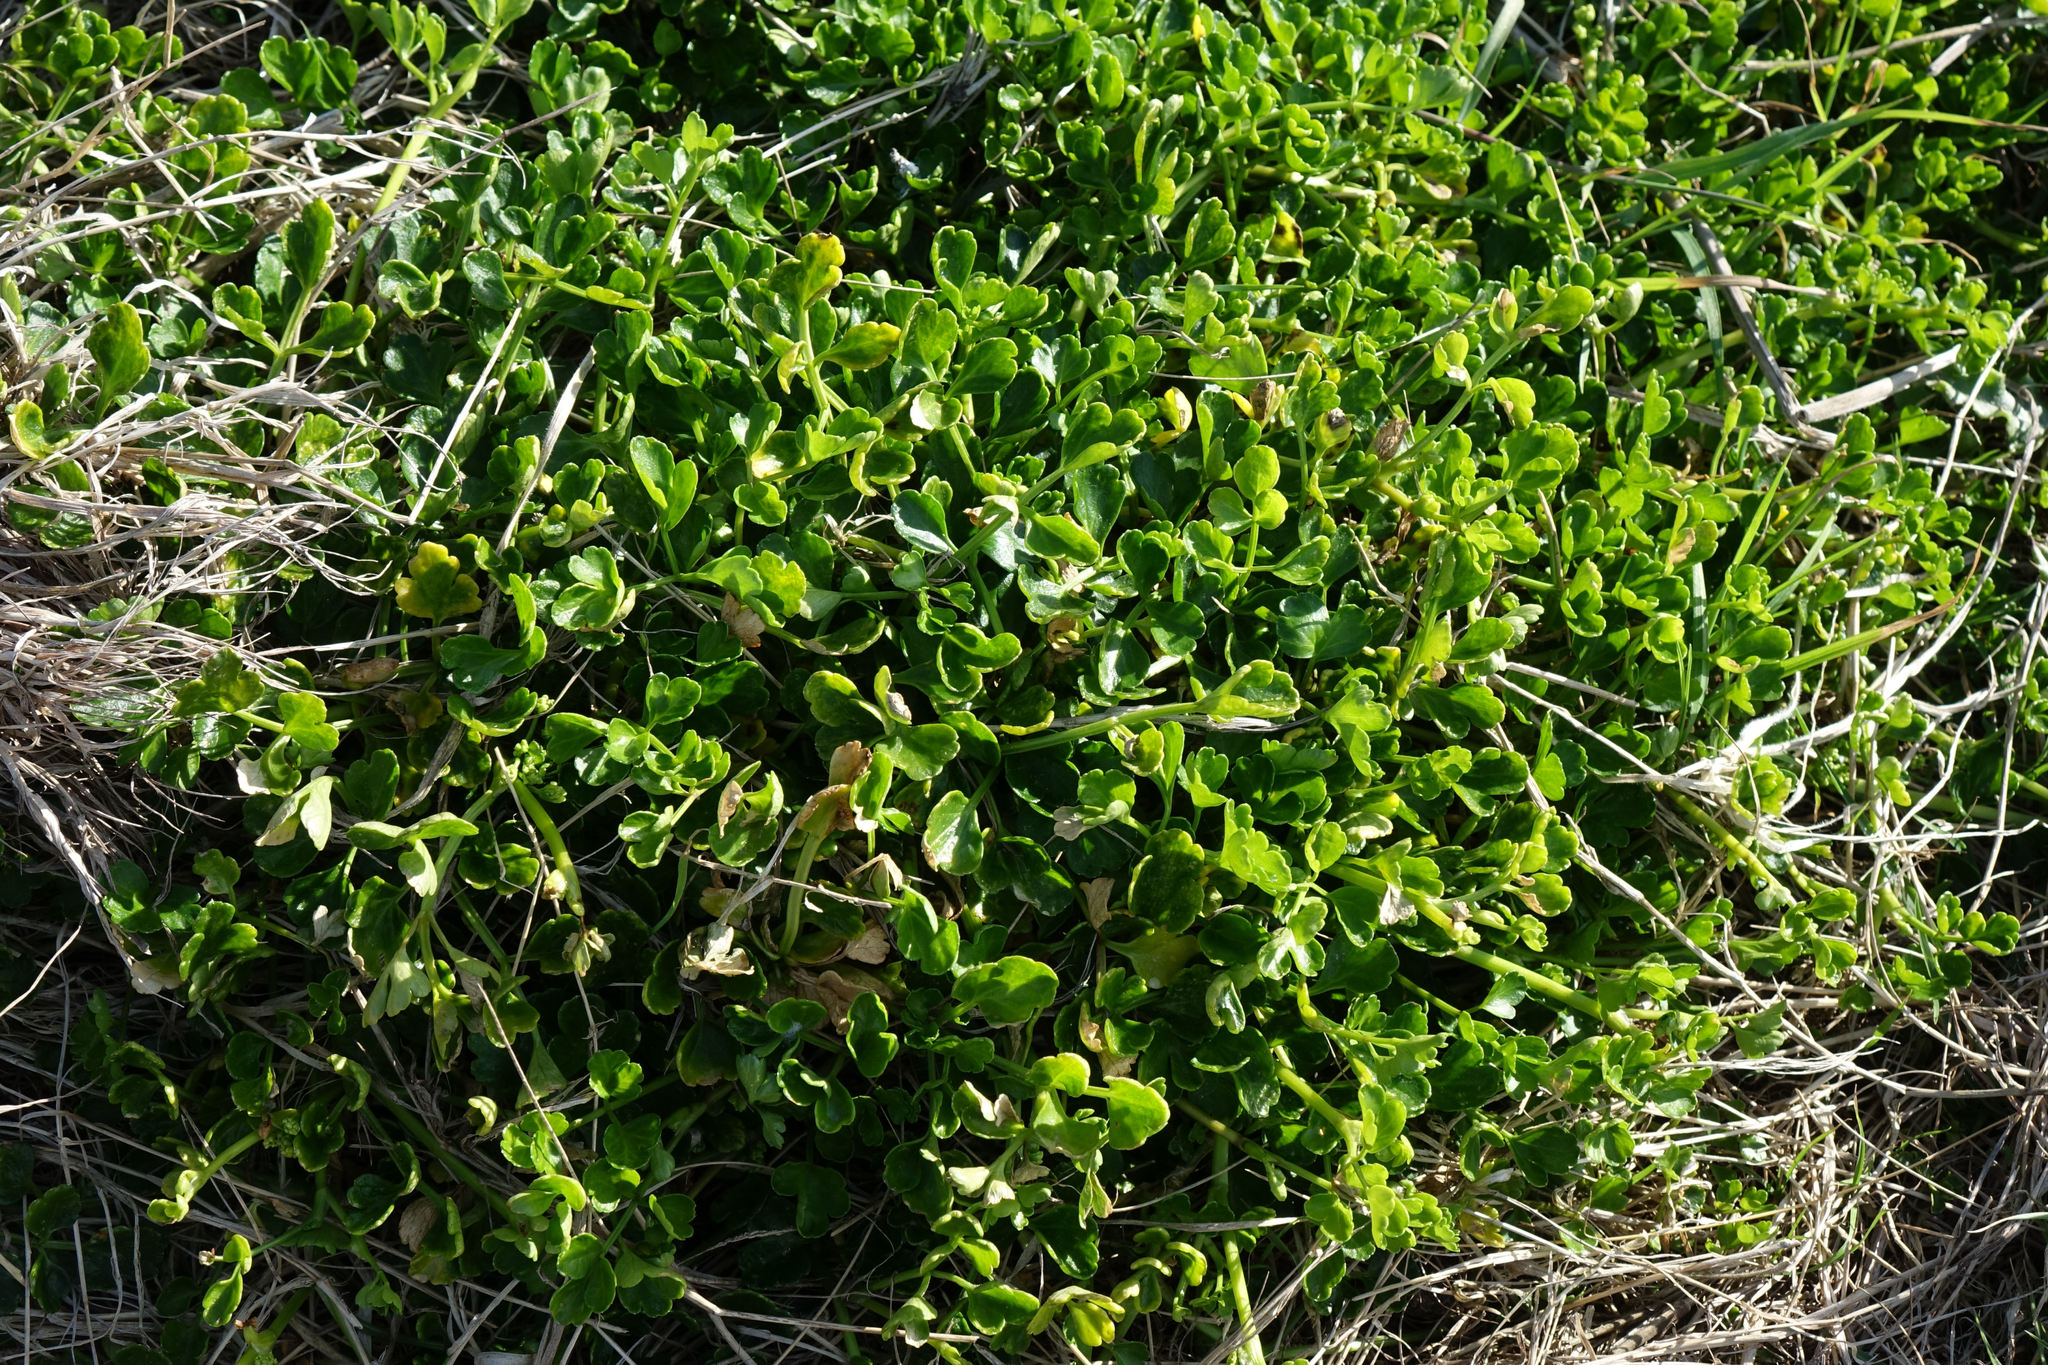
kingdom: Plantae
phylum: Tracheophyta
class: Magnoliopsida
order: Apiales
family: Apiaceae
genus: Apium
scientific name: Apium prostratum
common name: Prostrate marshwort
